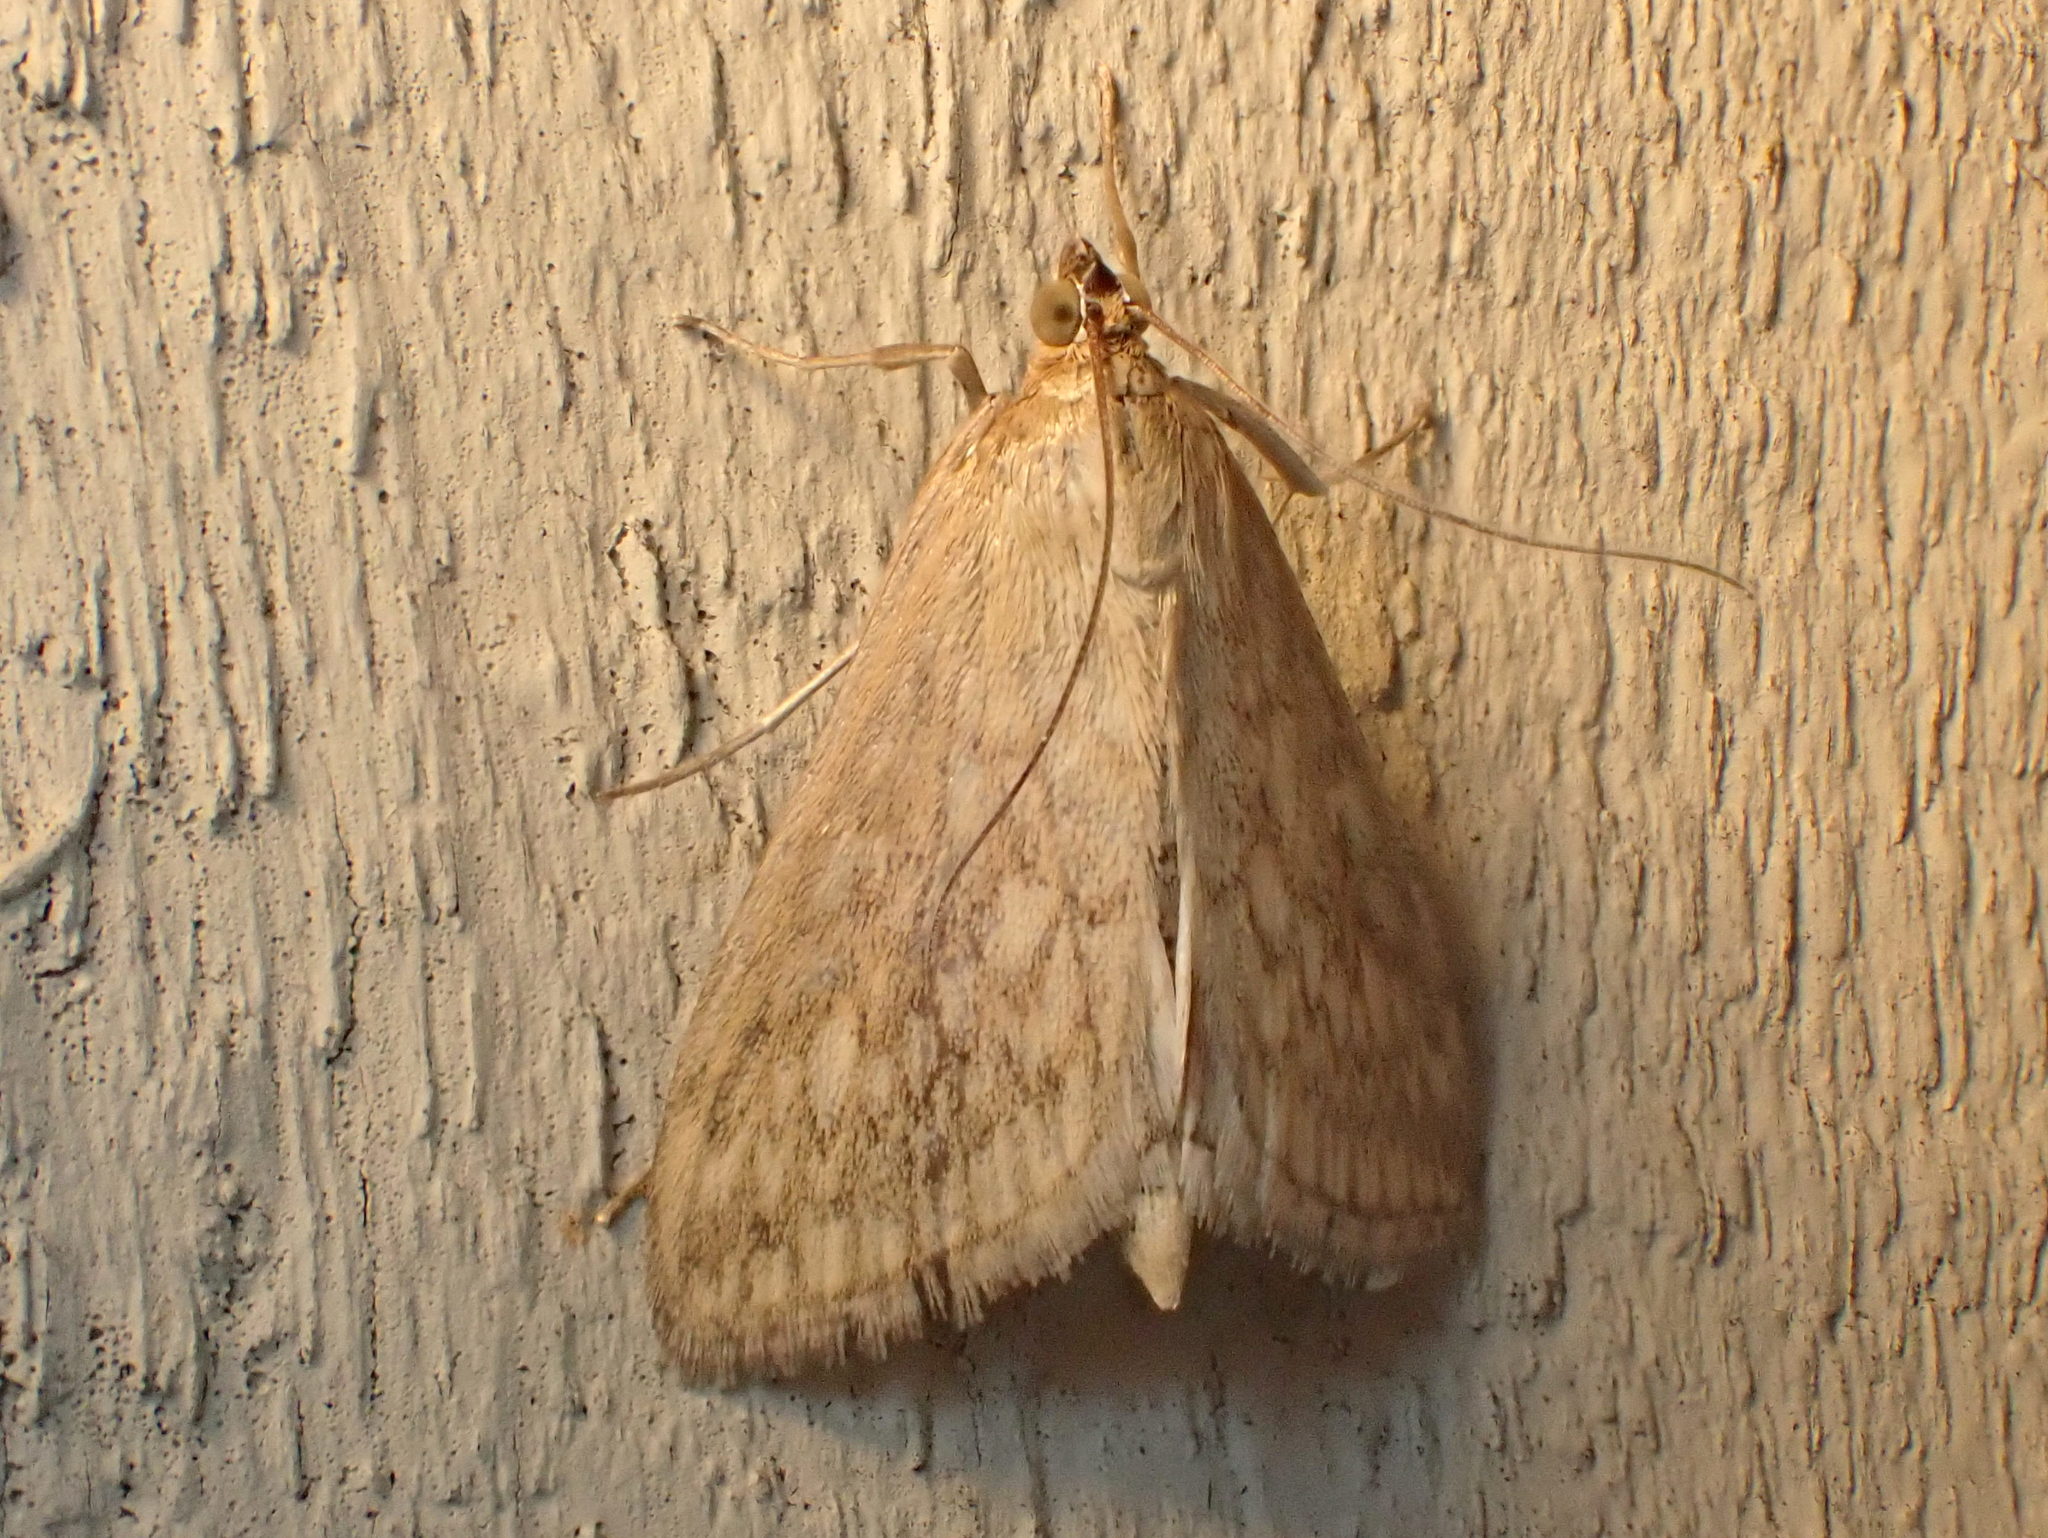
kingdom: Animalia
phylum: Arthropoda
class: Insecta
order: Lepidoptera
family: Crambidae
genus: Sitochroa
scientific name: Sitochroa chortalis
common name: Dimorphic sitochroa moth
